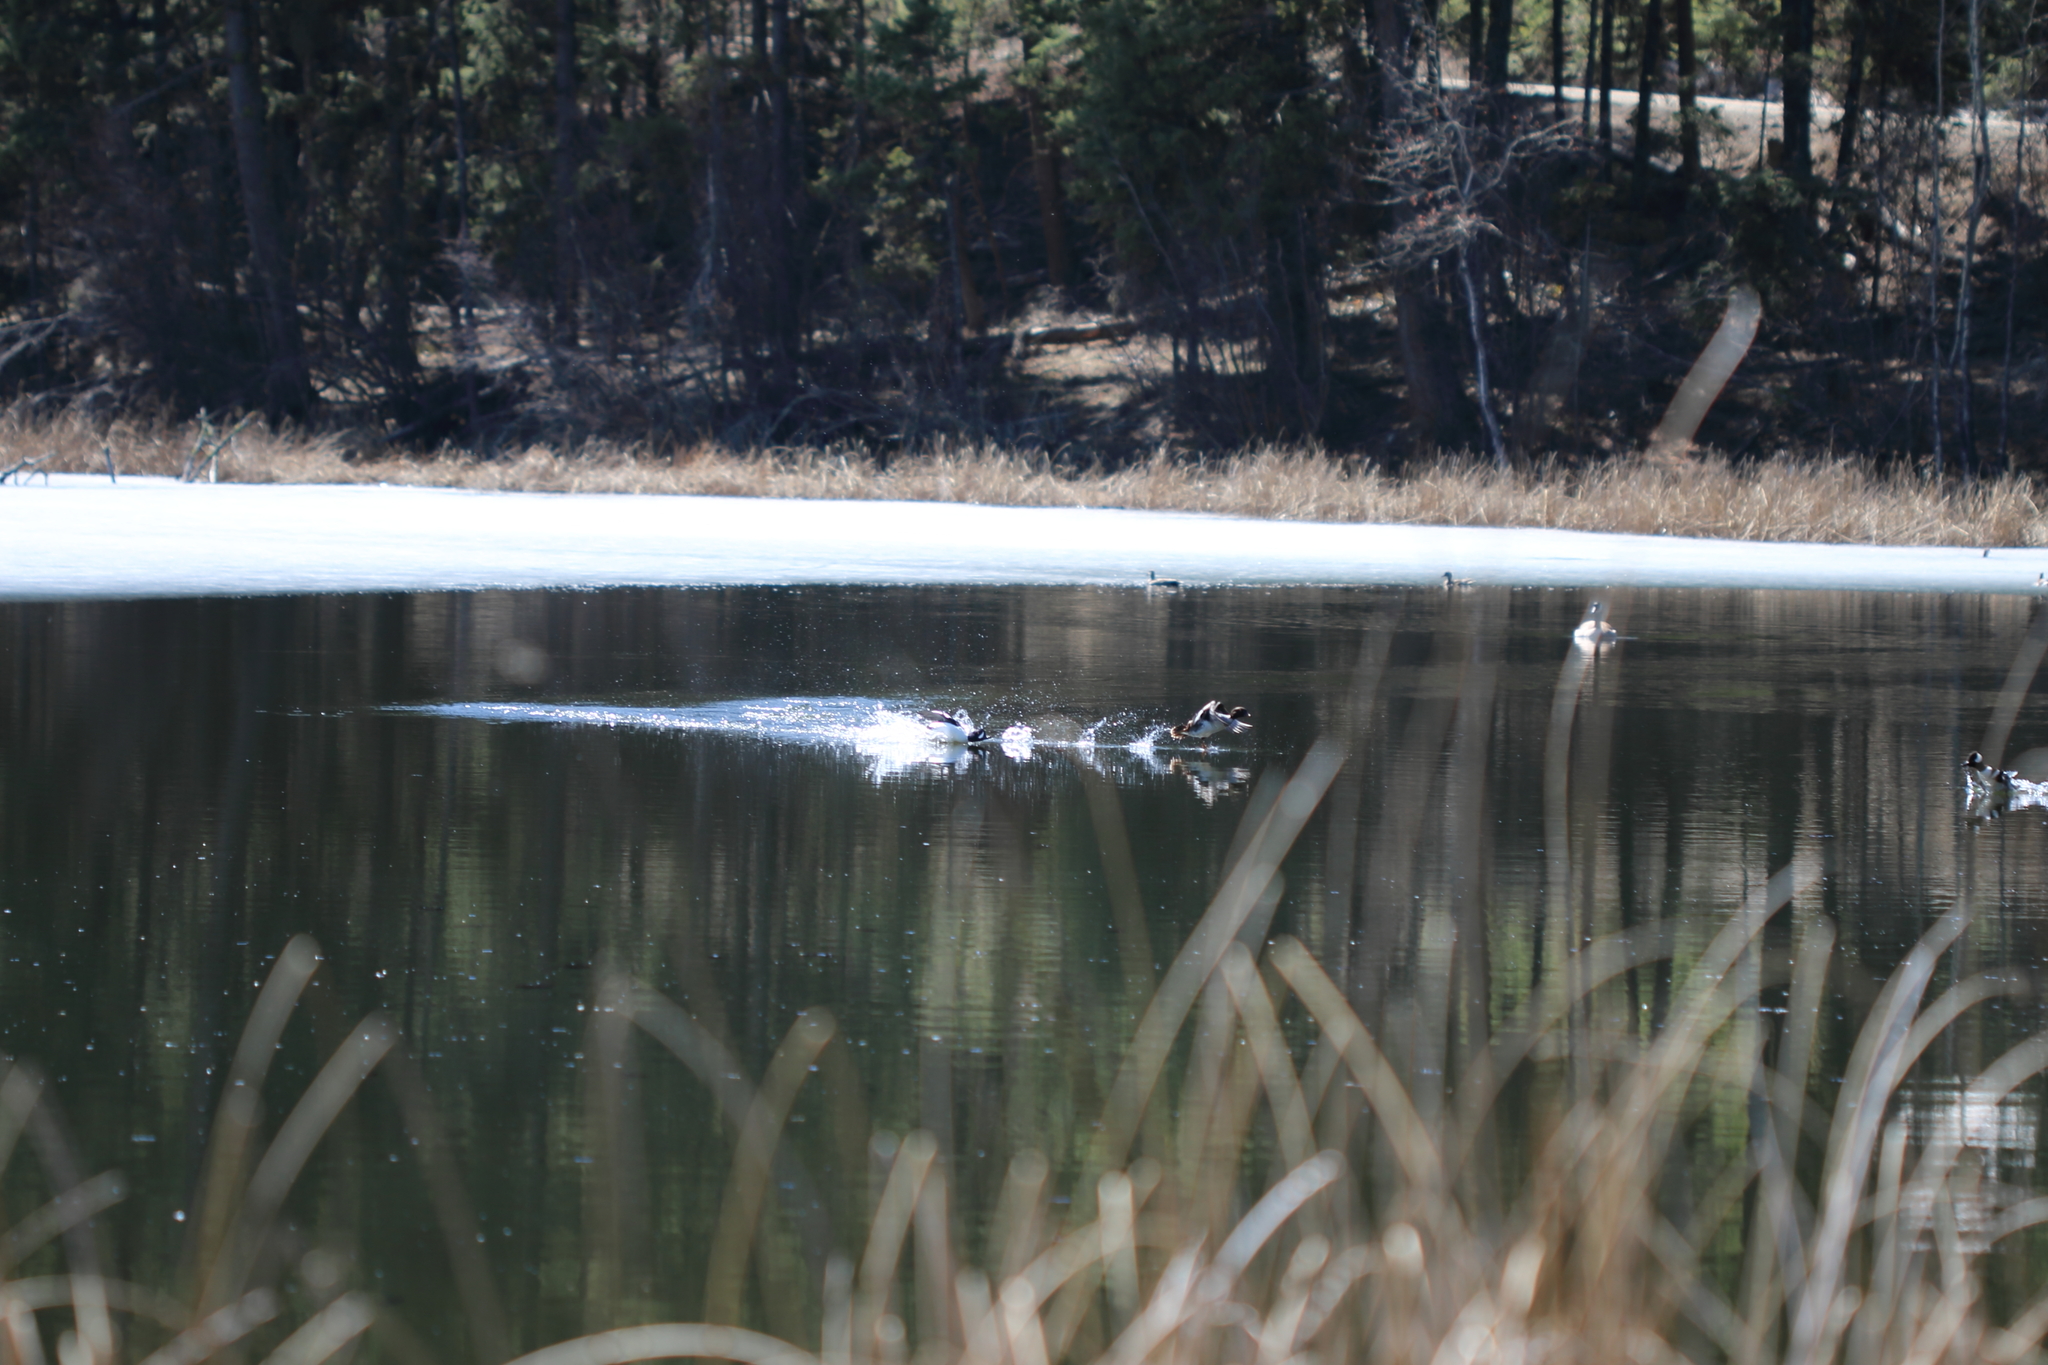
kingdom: Animalia
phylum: Chordata
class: Aves
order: Anseriformes
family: Anatidae
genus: Lophodytes
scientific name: Lophodytes cucullatus
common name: Hooded merganser
